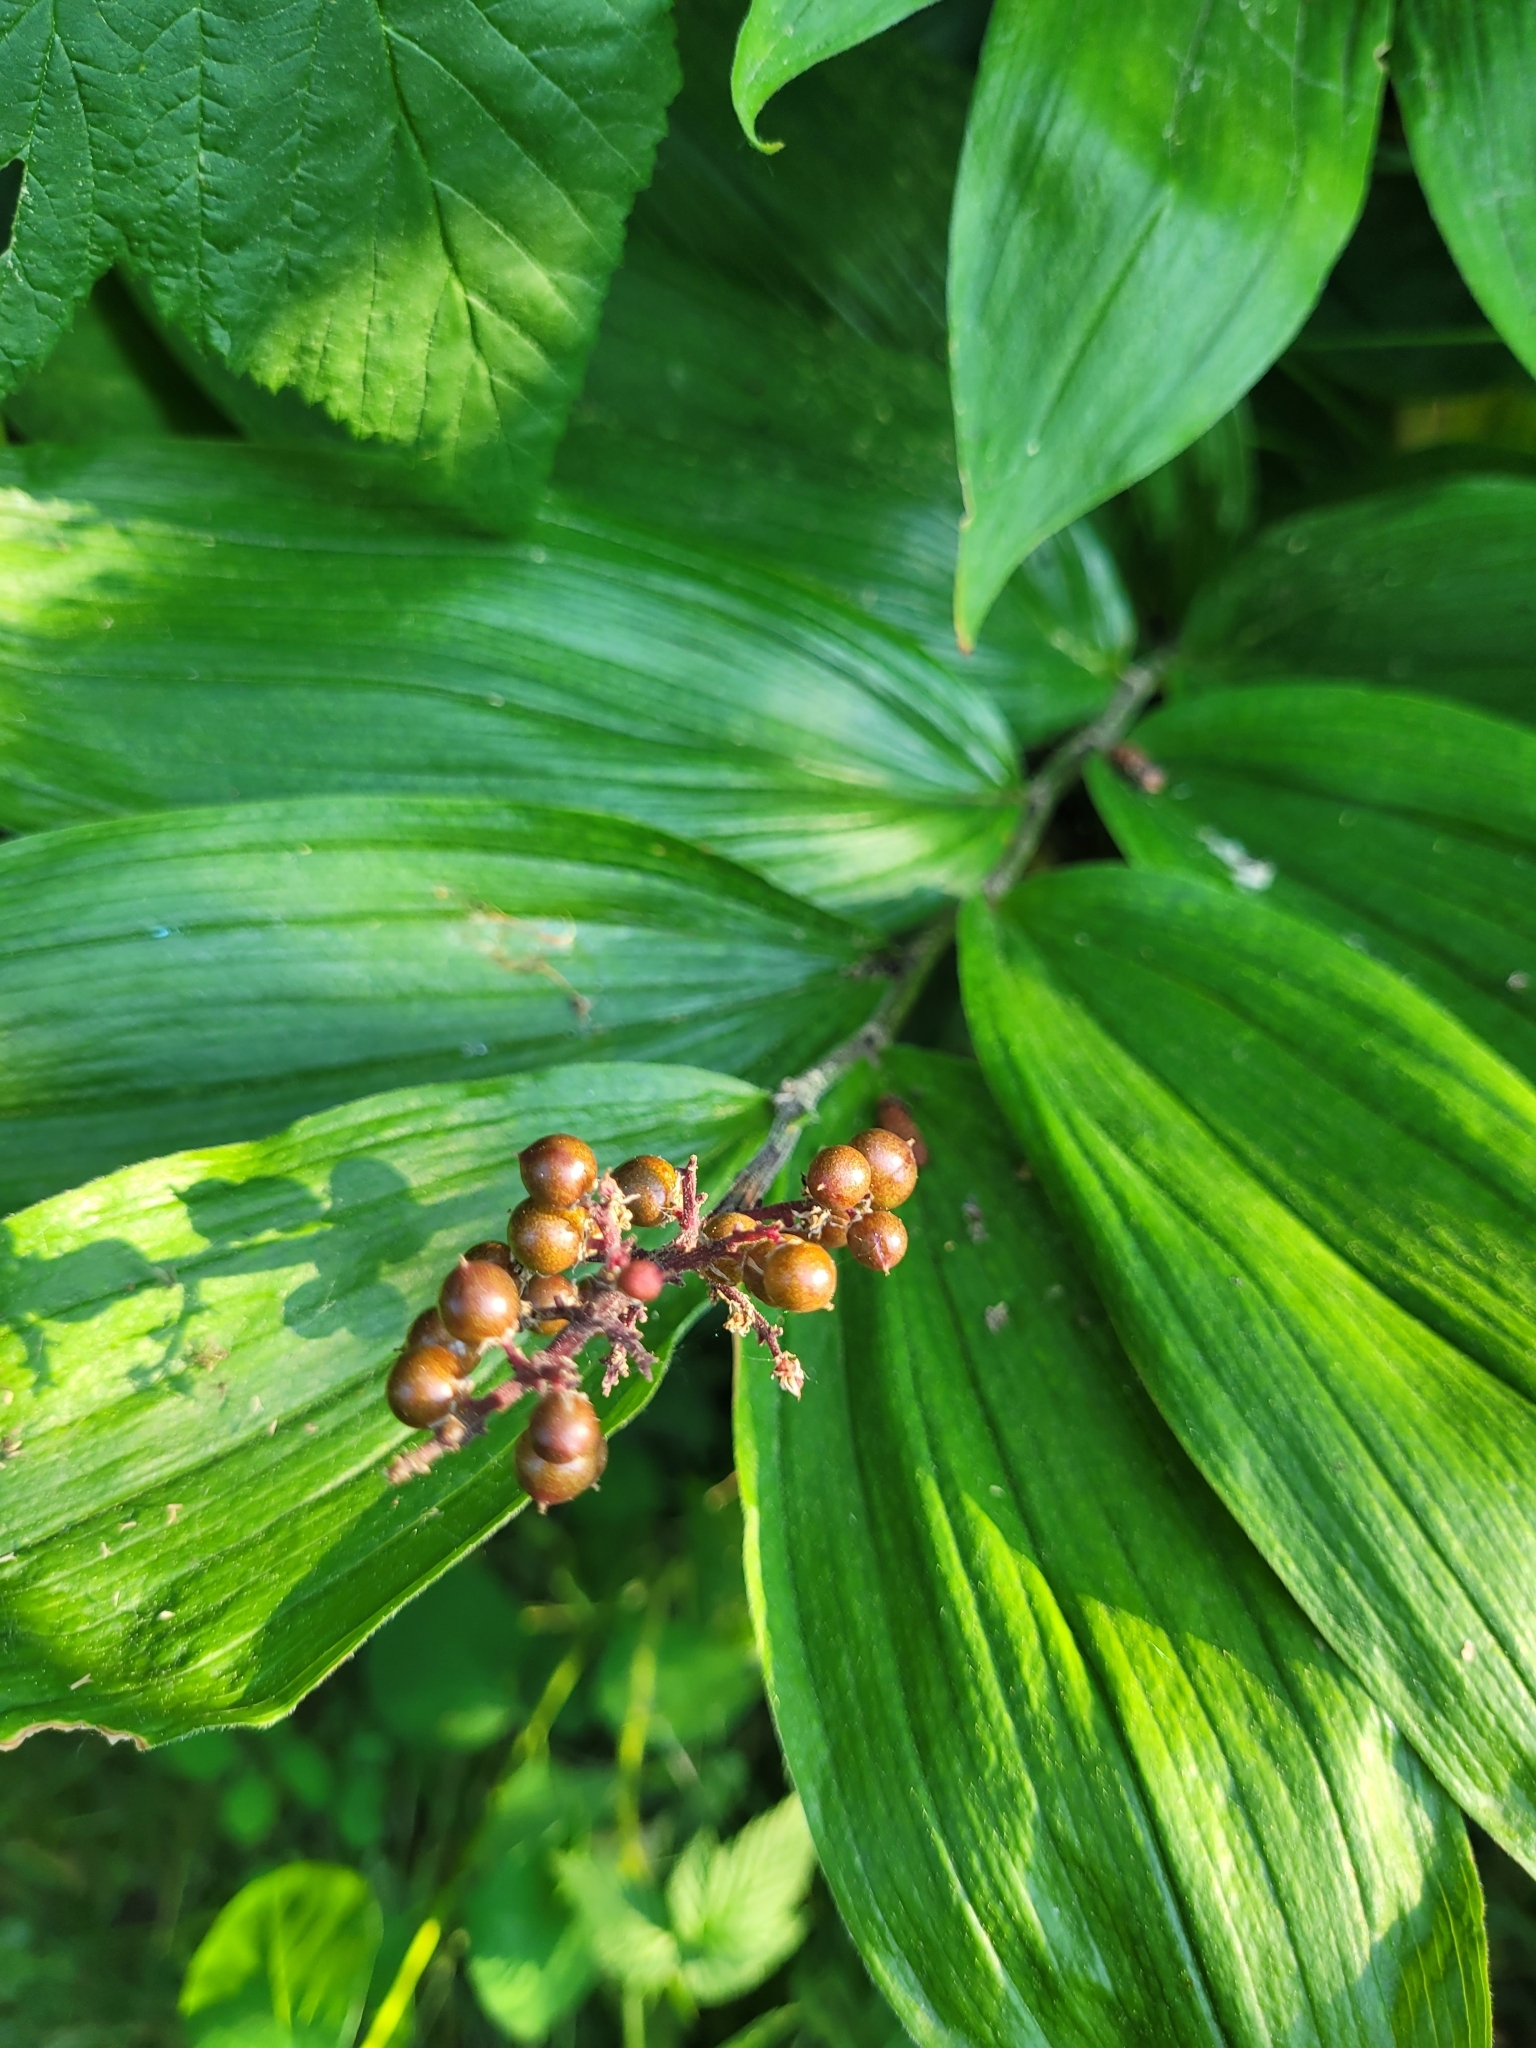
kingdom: Plantae
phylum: Tracheophyta
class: Liliopsida
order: Asparagales
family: Asparagaceae
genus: Maianthemum
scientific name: Maianthemum racemosum
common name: False spikenard
